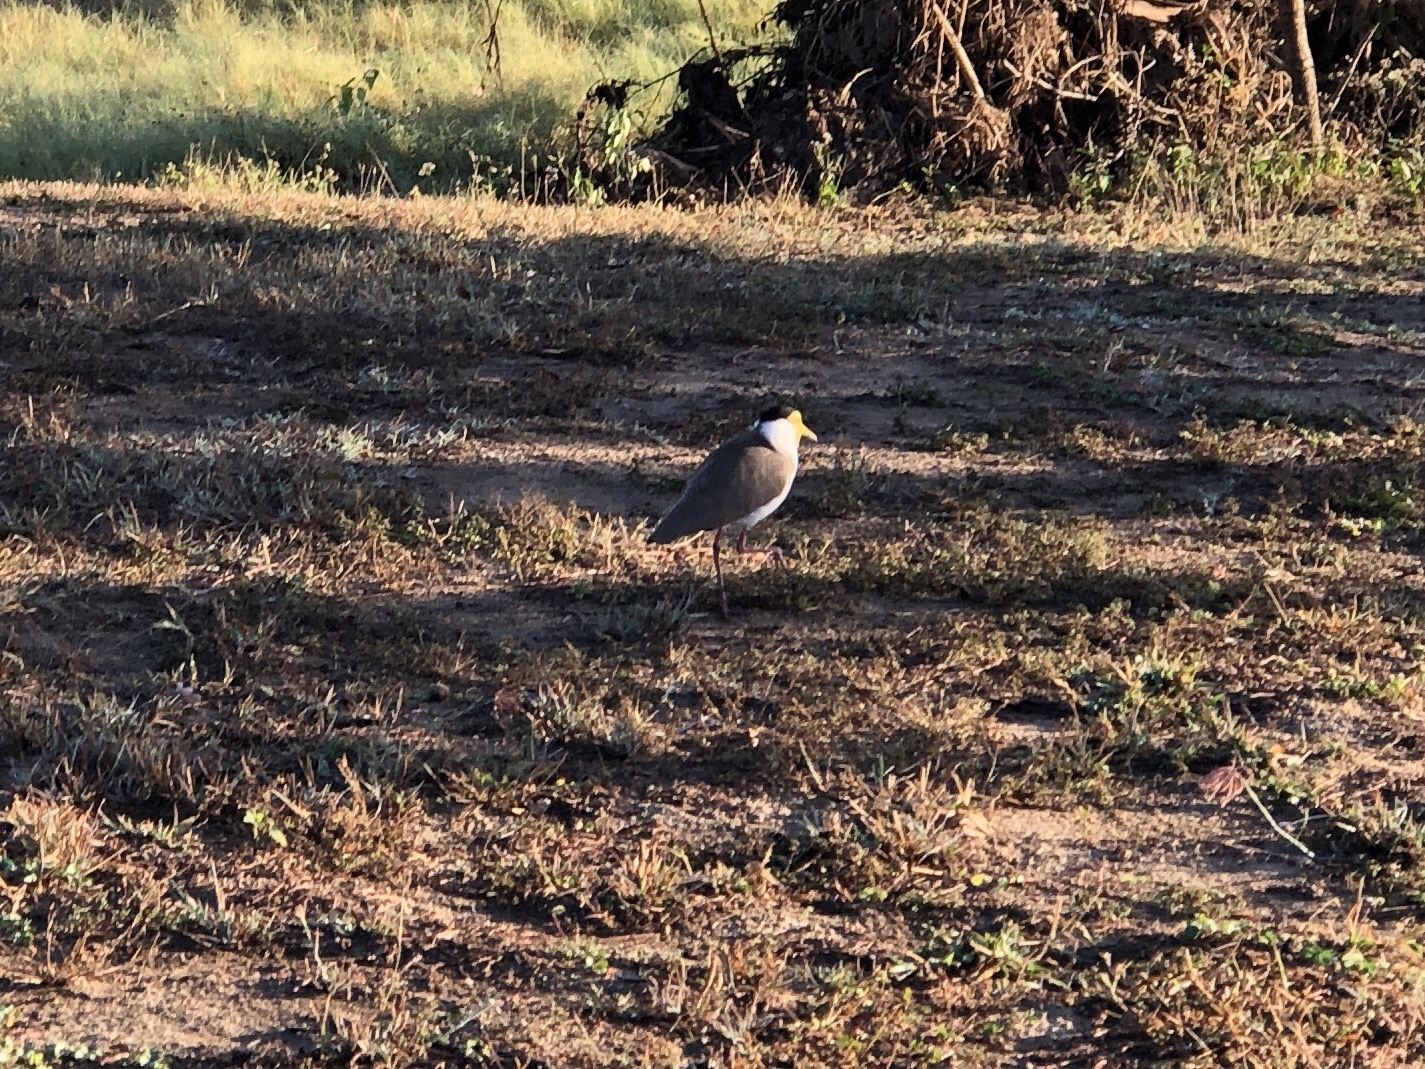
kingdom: Animalia
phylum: Chordata
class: Aves
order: Charadriiformes
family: Charadriidae
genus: Vanellus
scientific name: Vanellus miles
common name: Masked lapwing
